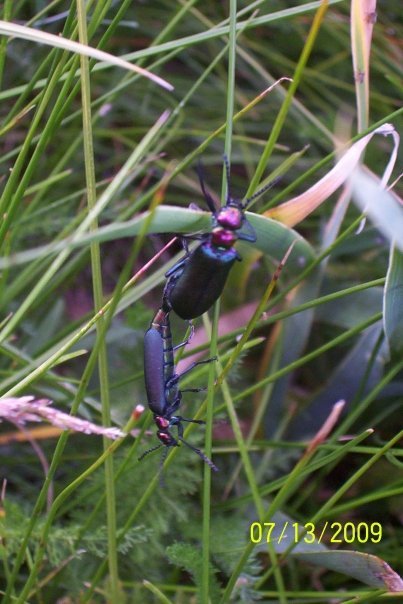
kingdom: Animalia
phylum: Arthropoda
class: Insecta
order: Coleoptera
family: Meloidae
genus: Lytta
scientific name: Lytta nuttallii
